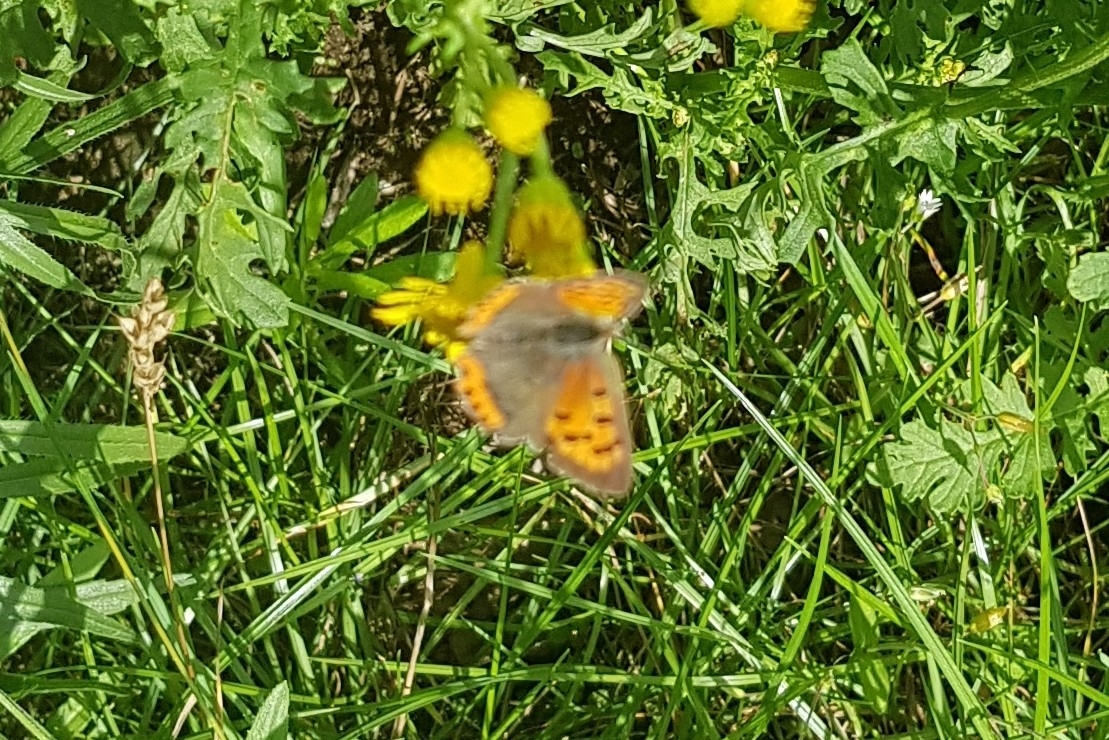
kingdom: Animalia
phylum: Arthropoda
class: Insecta
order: Lepidoptera
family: Lycaenidae
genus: Lycaena
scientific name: Lycaena phlaeas
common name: Small copper
